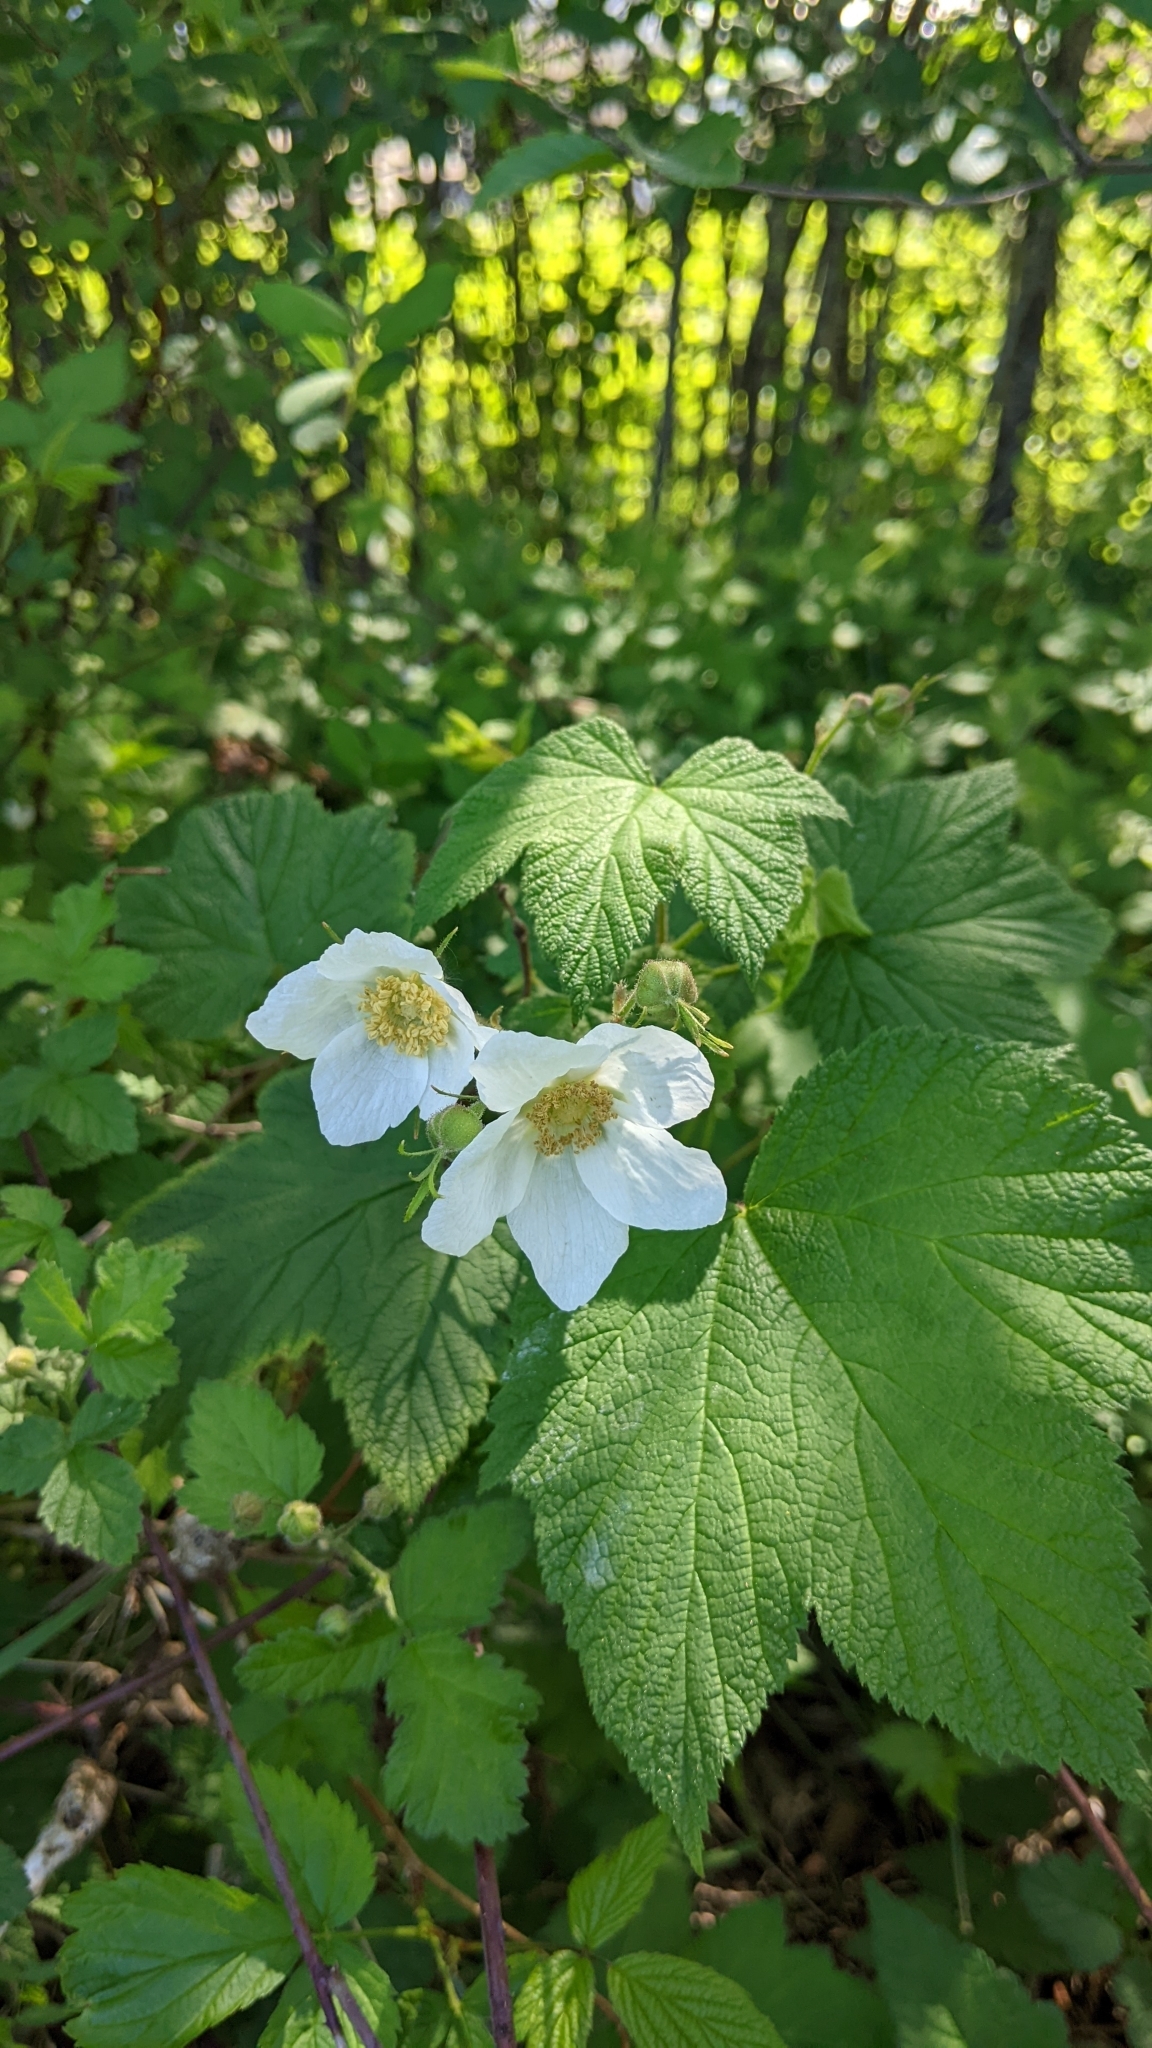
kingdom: Plantae
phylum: Tracheophyta
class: Magnoliopsida
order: Rosales
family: Rosaceae
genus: Rubus
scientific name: Rubus parviflorus
